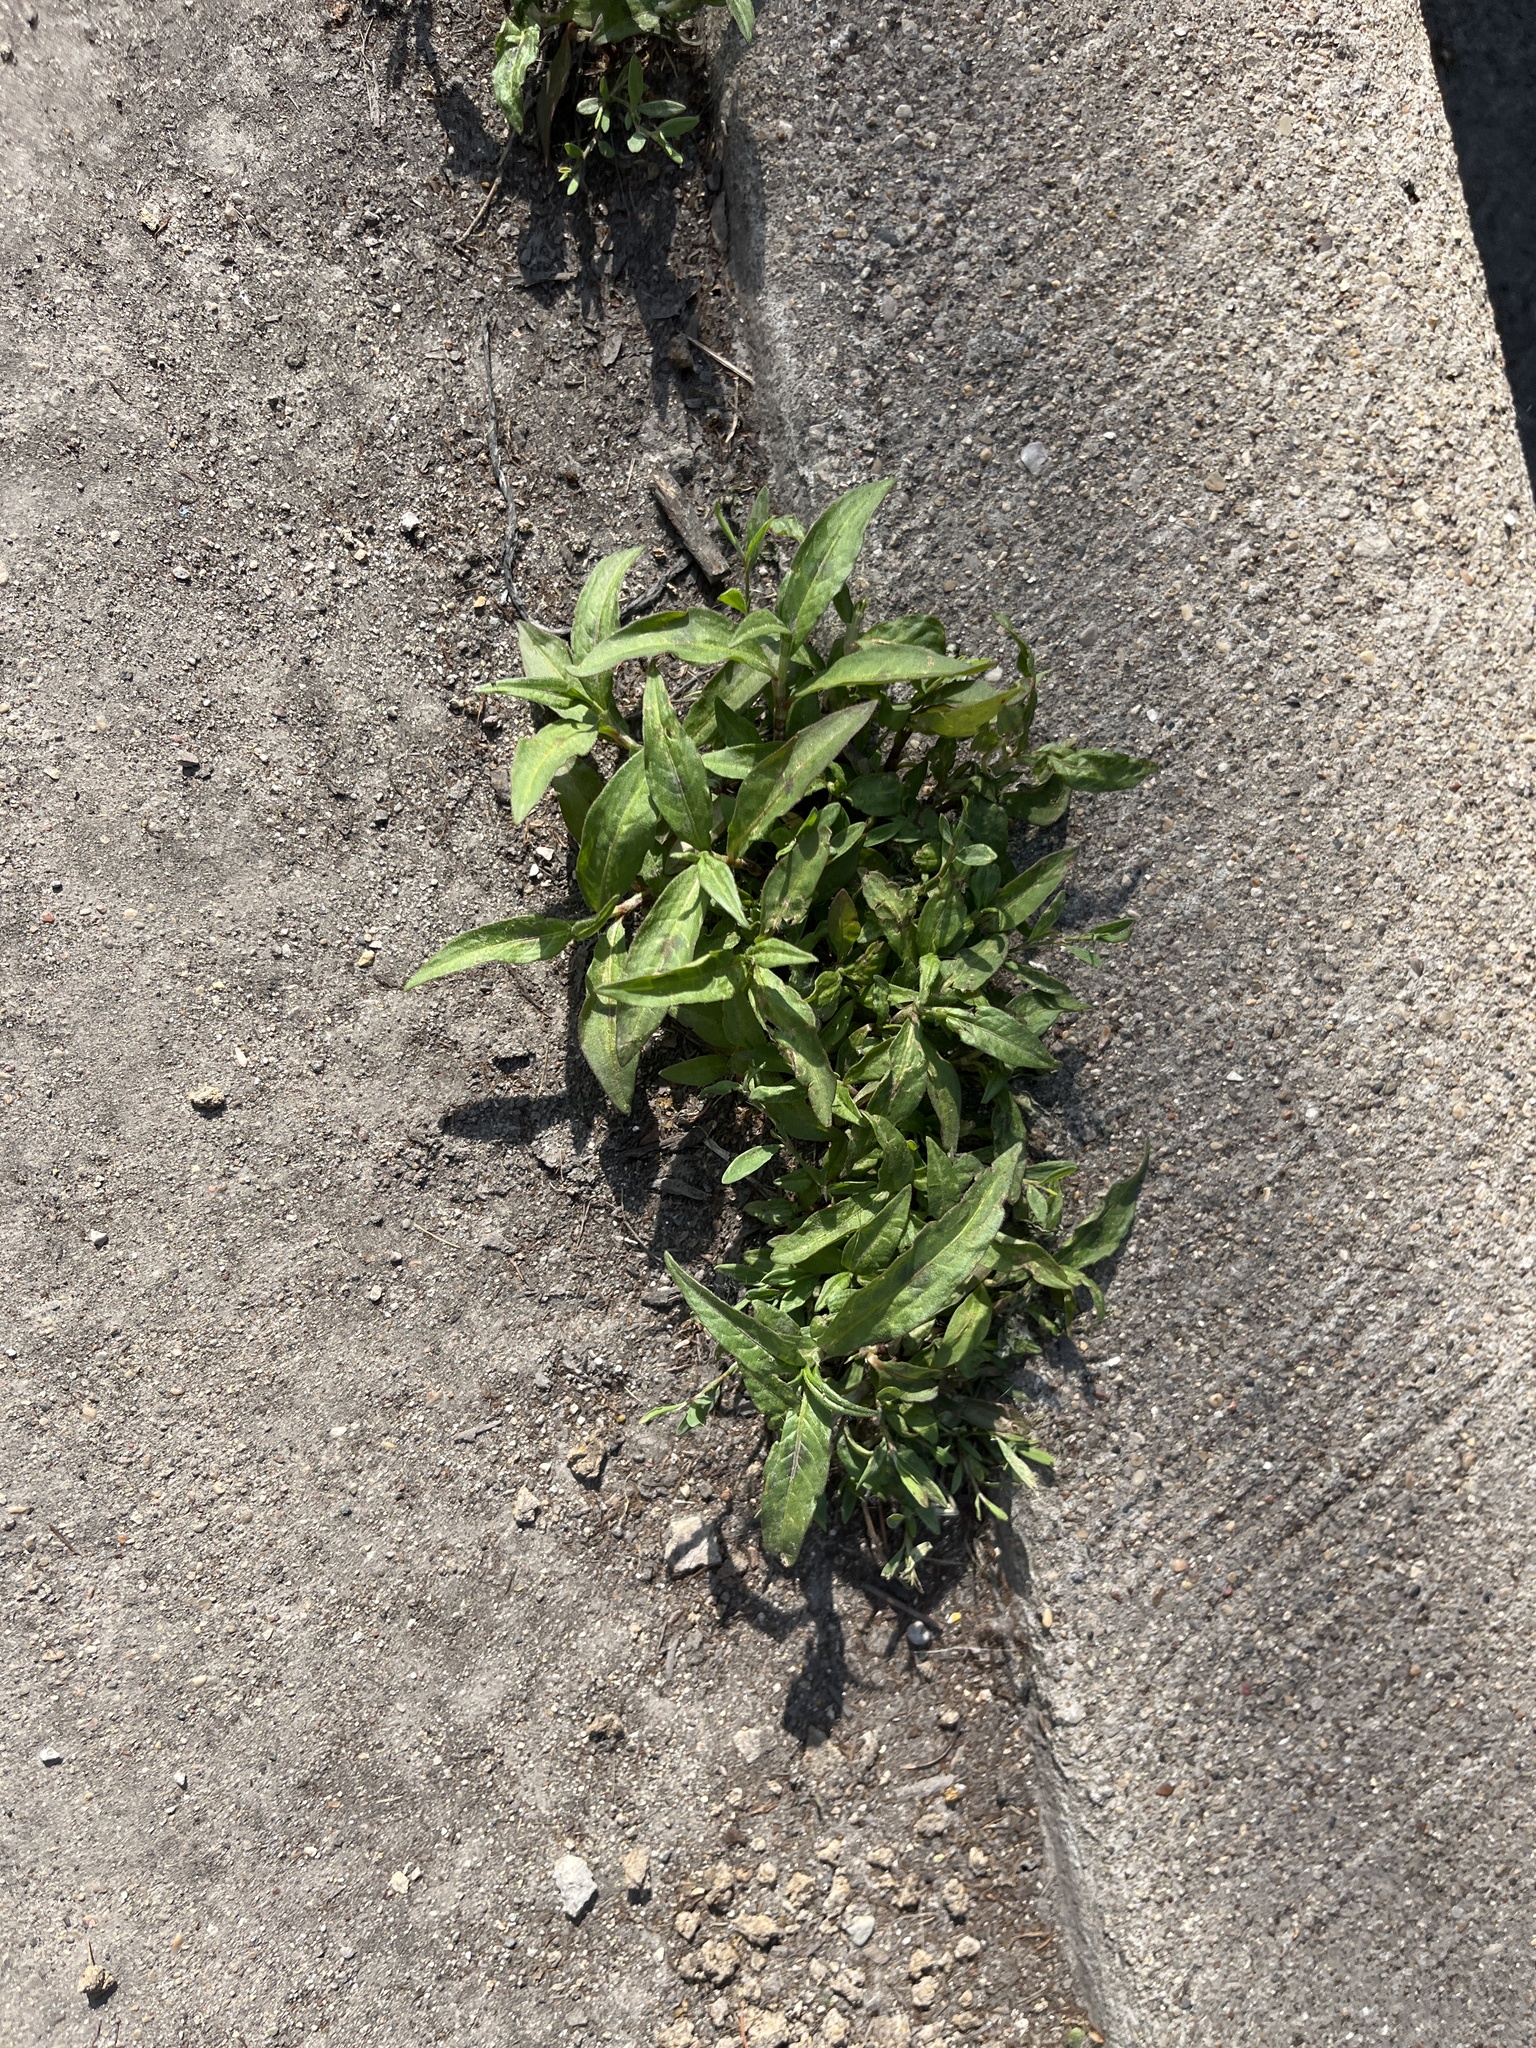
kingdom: Plantae
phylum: Tracheophyta
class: Magnoliopsida
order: Caryophyllales
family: Polygonaceae
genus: Persicaria
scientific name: Persicaria maculosa
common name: Redshank
